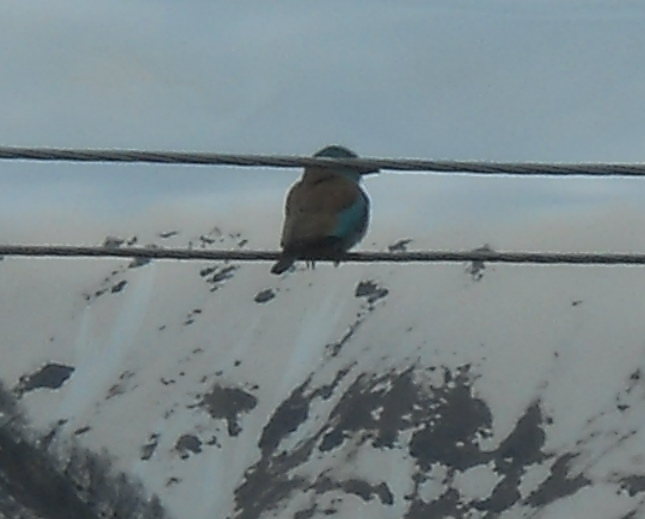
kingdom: Animalia
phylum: Chordata
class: Aves
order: Coraciiformes
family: Coraciidae
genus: Coracias
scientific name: Coracias garrulus
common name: European roller
